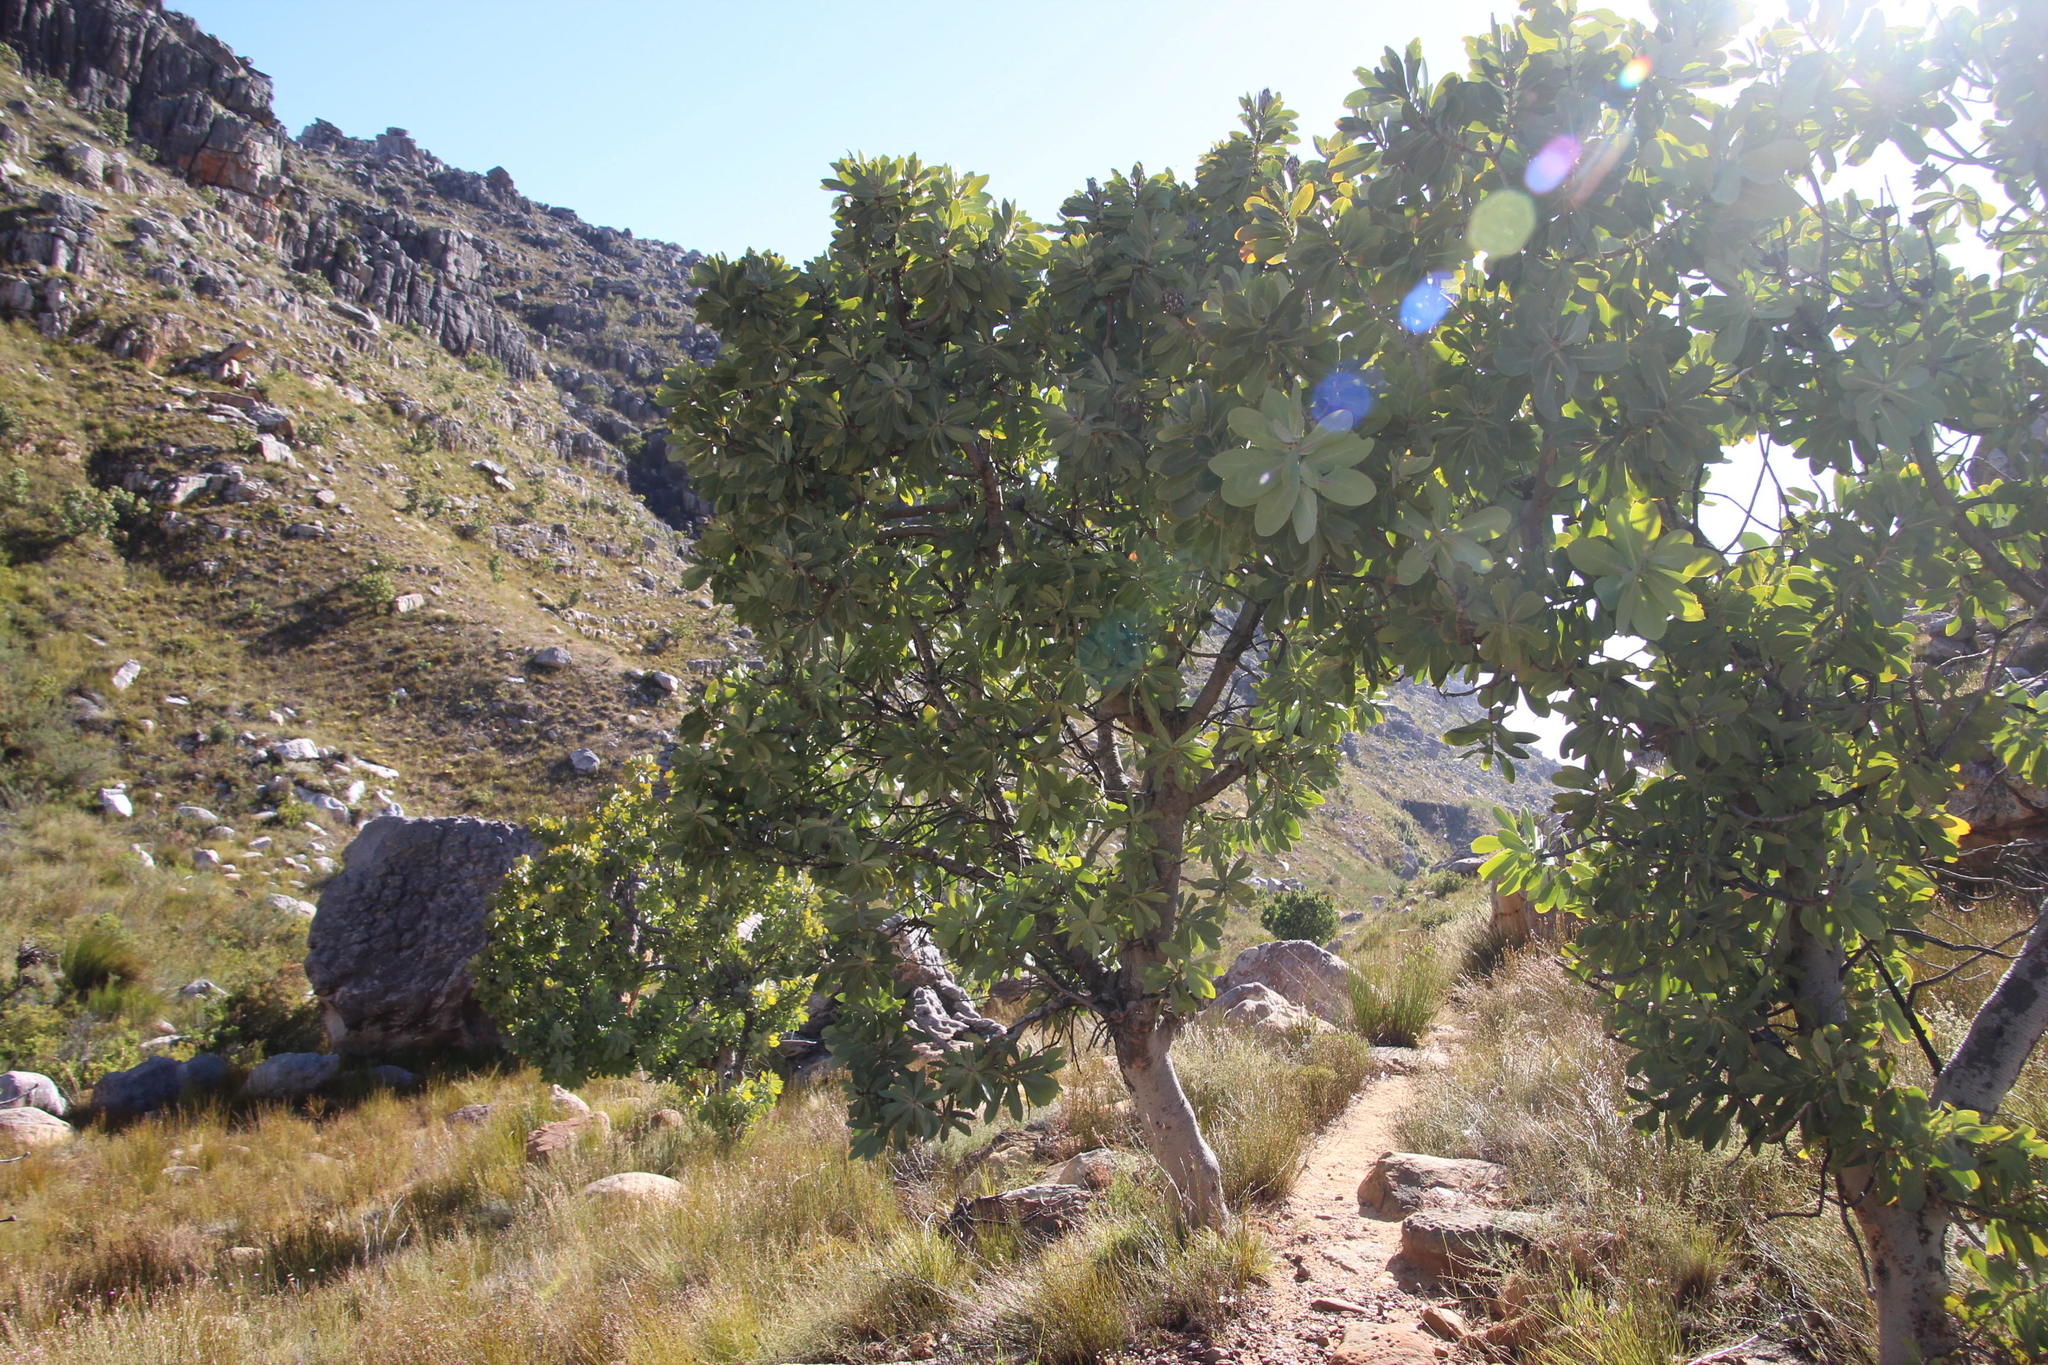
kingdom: Plantae
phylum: Tracheophyta
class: Magnoliopsida
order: Proteales
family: Proteaceae
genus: Protea
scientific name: Protea nitida
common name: Tree protea
